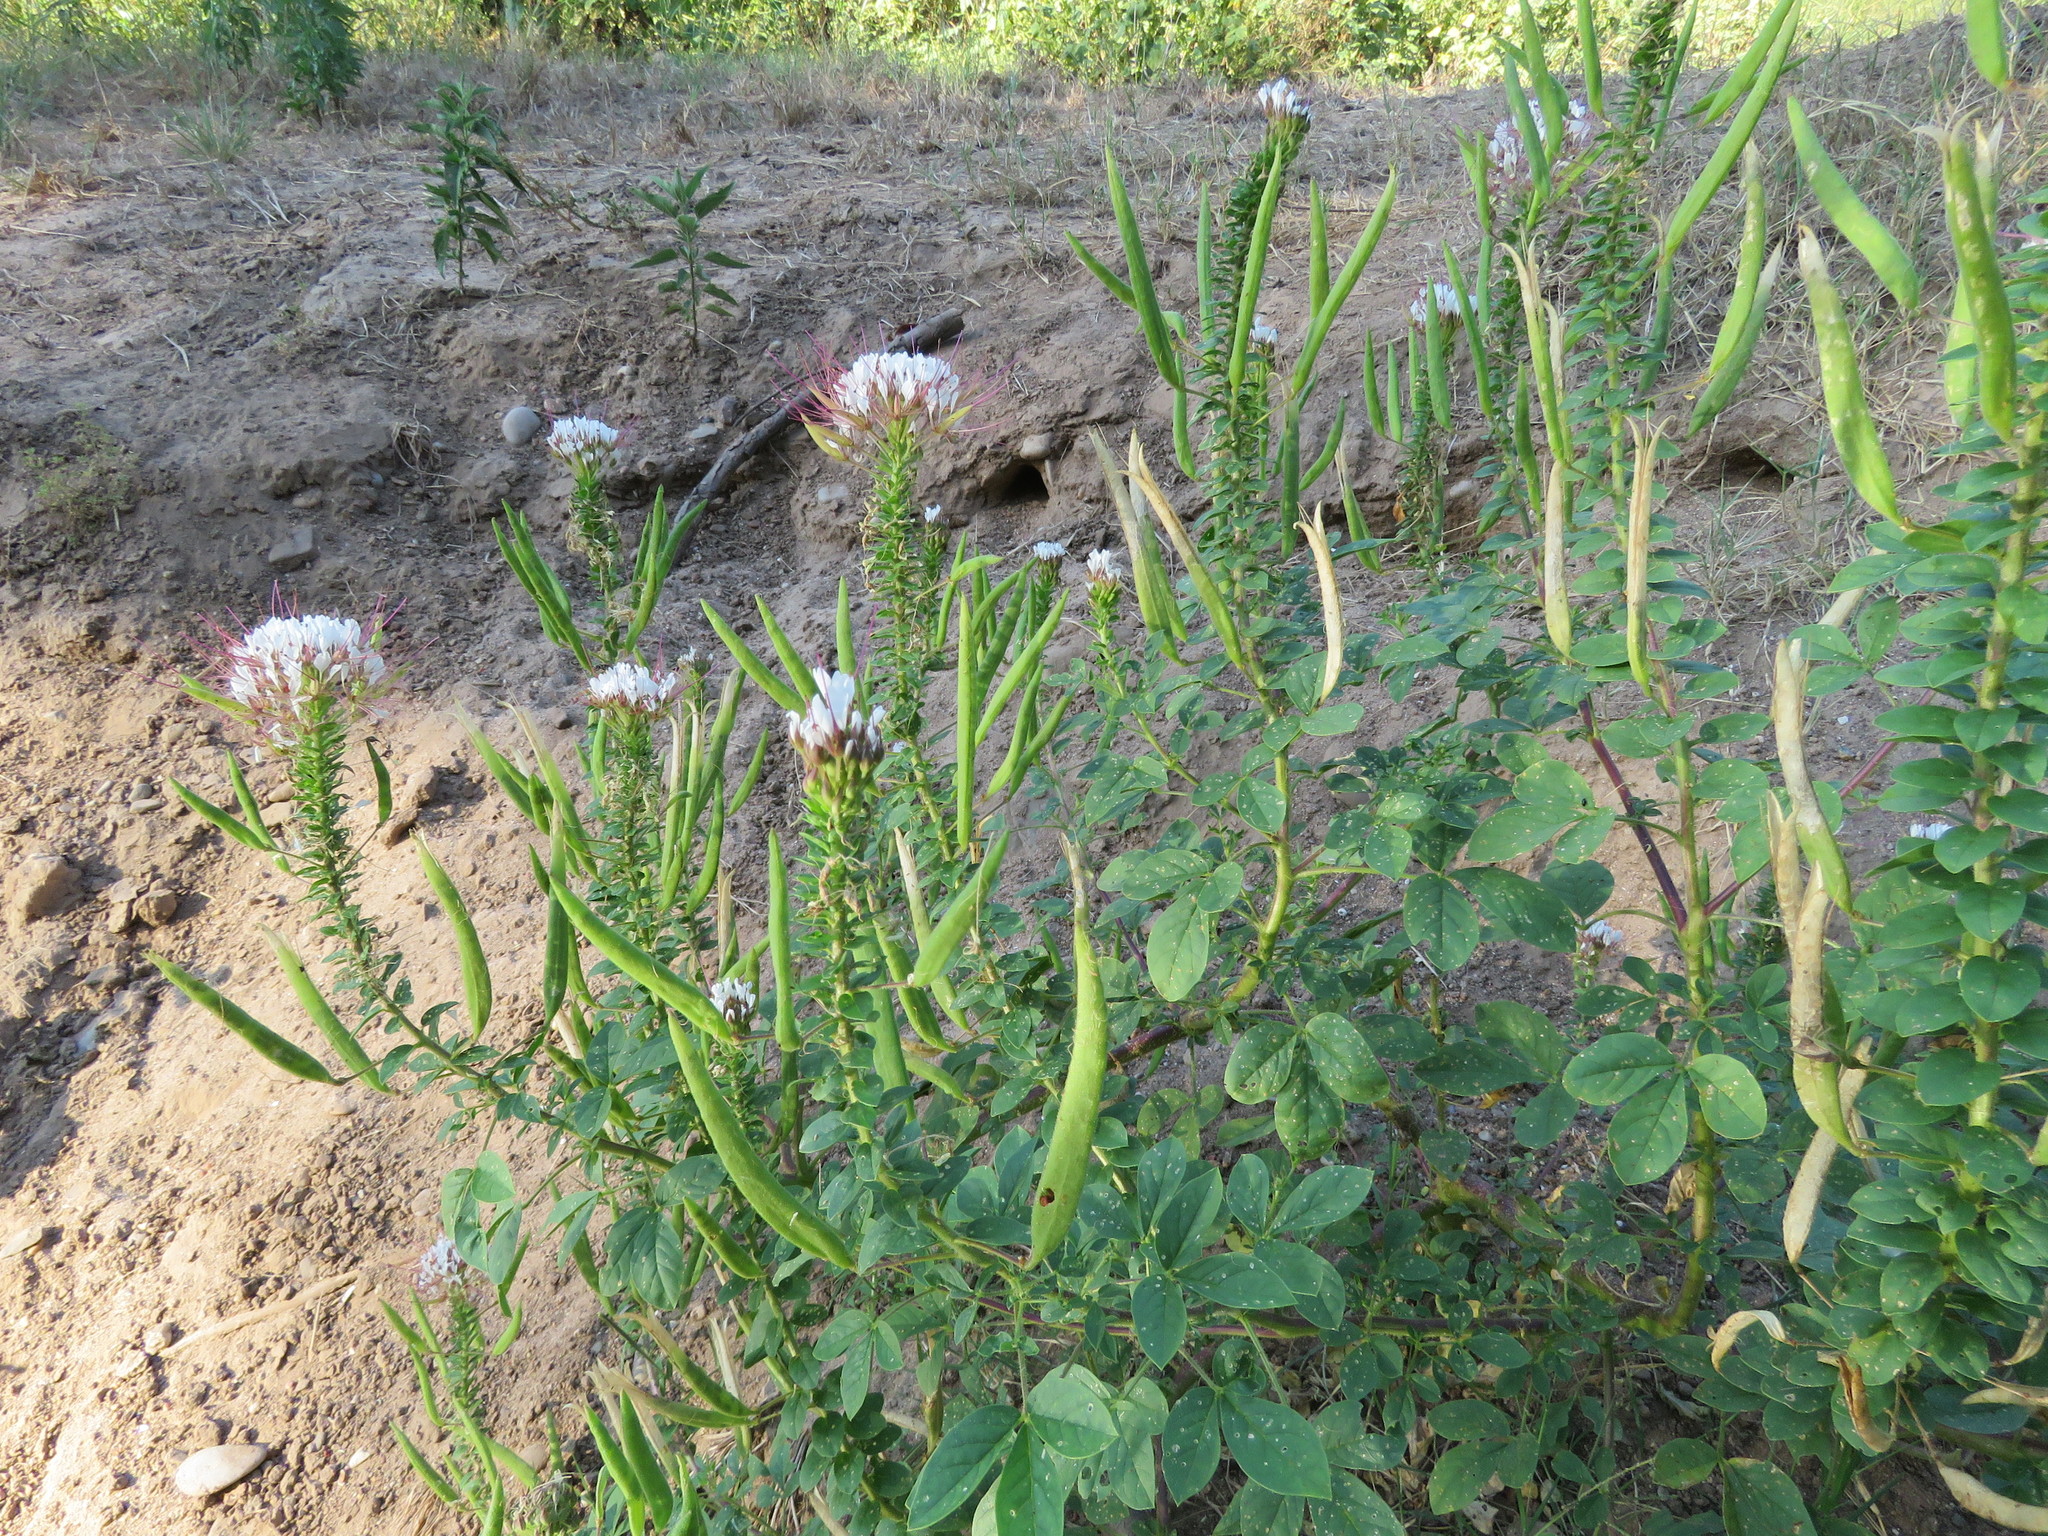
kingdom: Plantae
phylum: Tracheophyta
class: Magnoliopsida
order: Brassicales
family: Cleomaceae
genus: Polanisia
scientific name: Polanisia dodecandra
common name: Clammyweed
